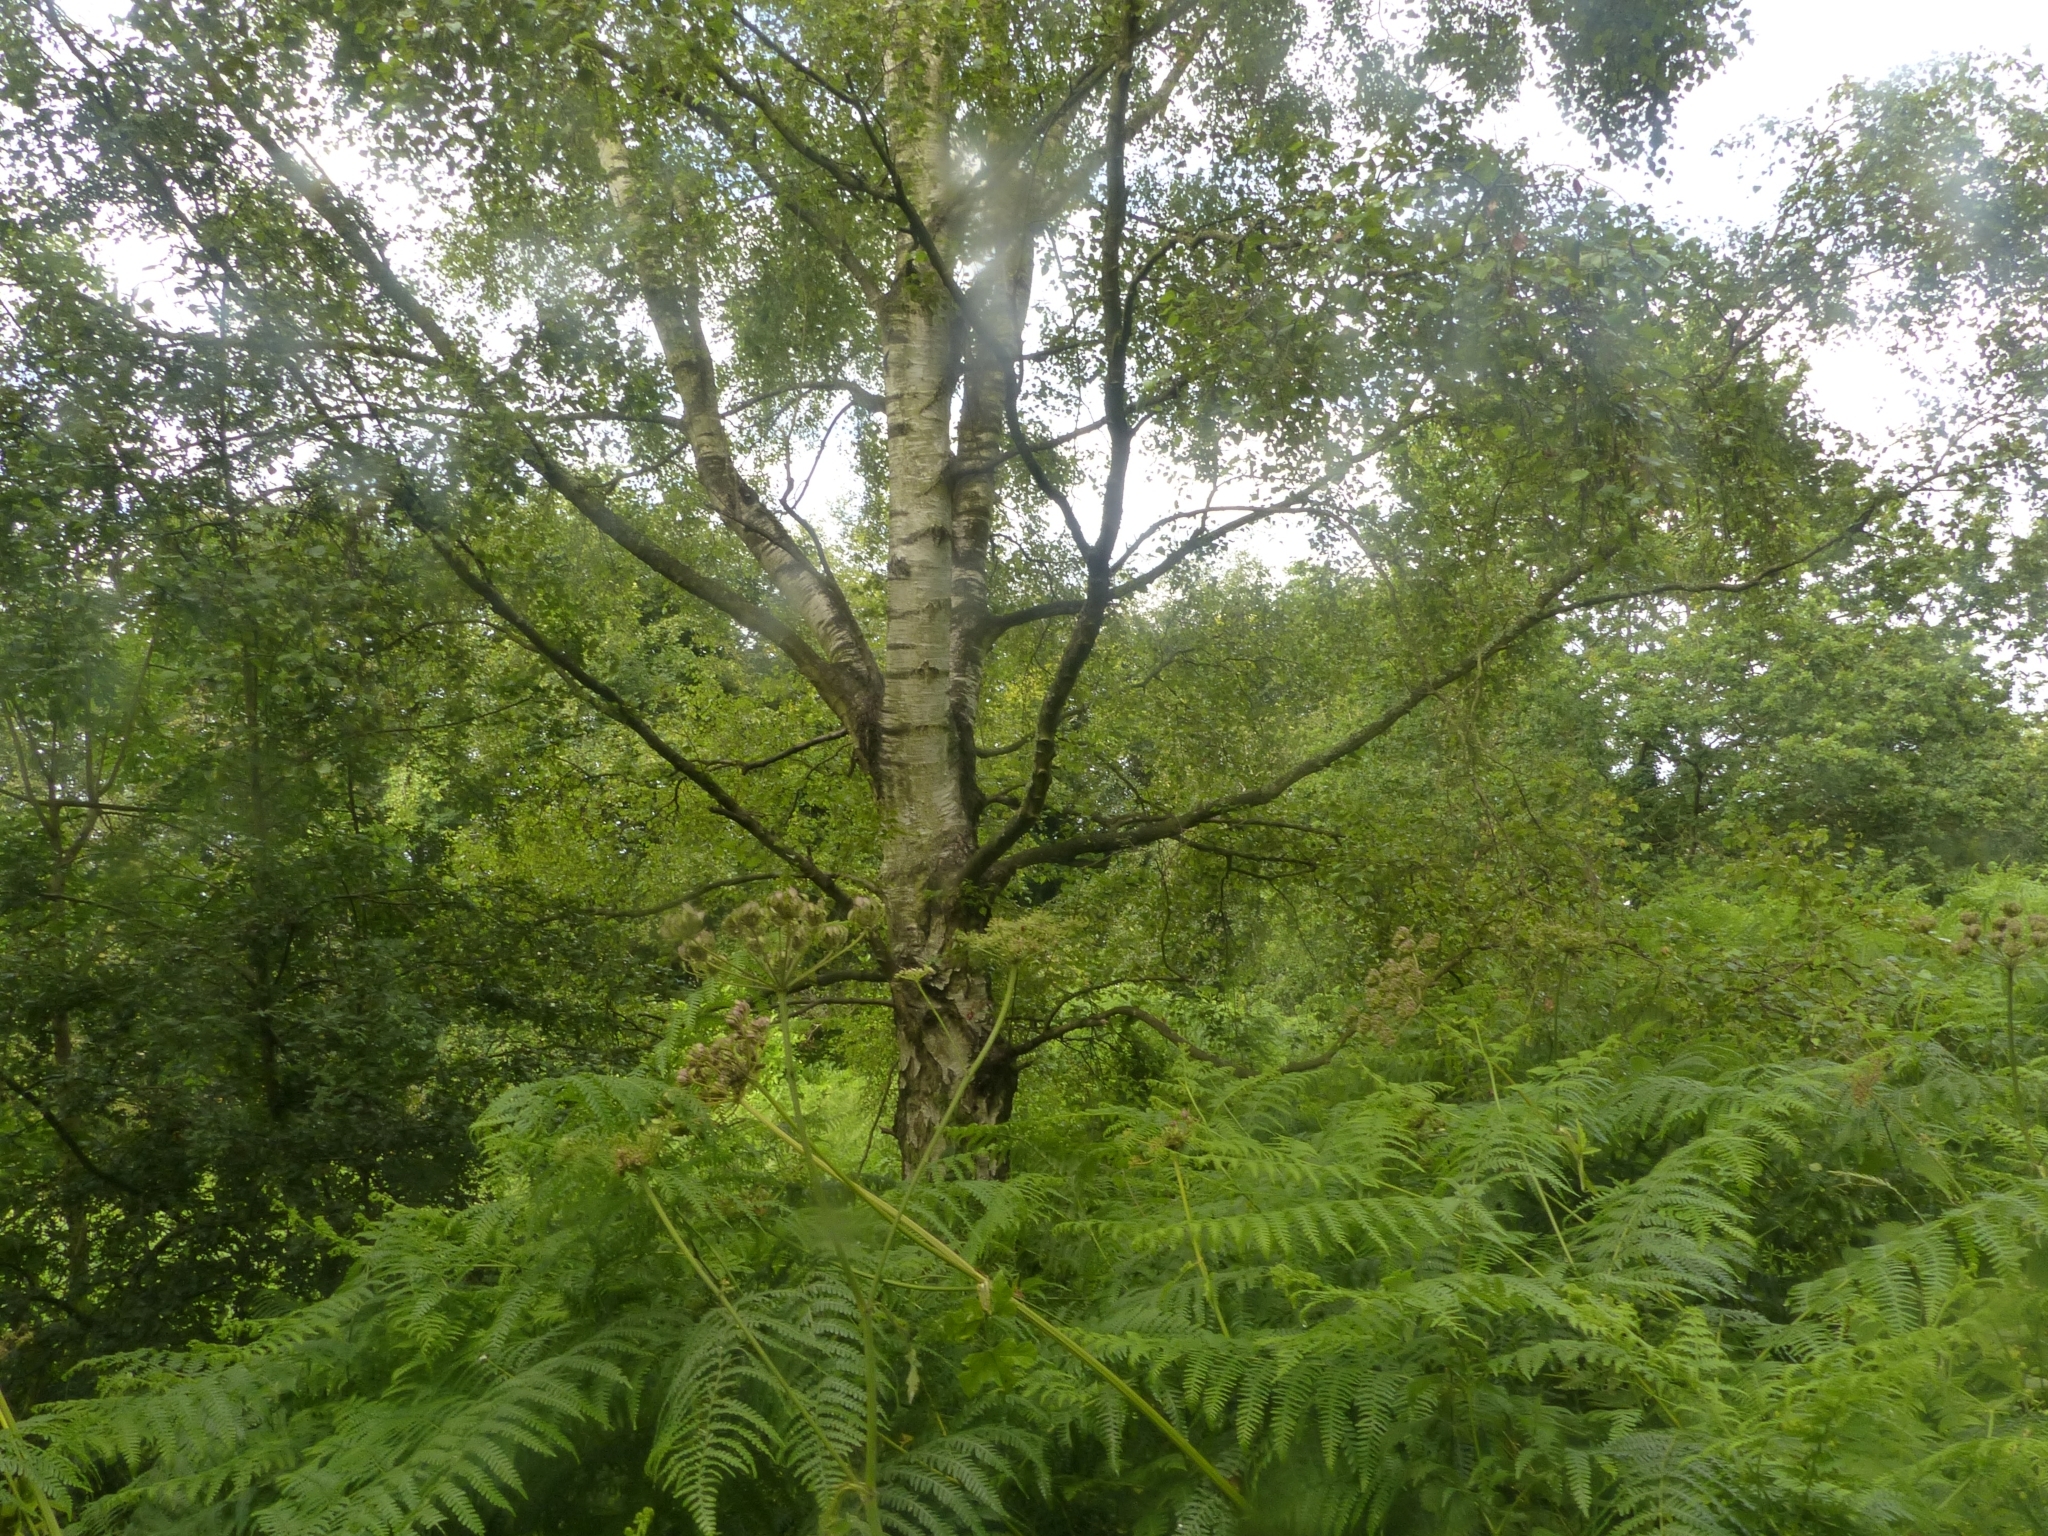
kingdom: Plantae
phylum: Tracheophyta
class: Magnoliopsida
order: Fagales
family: Betulaceae
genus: Betula
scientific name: Betula pendula
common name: Silver birch
